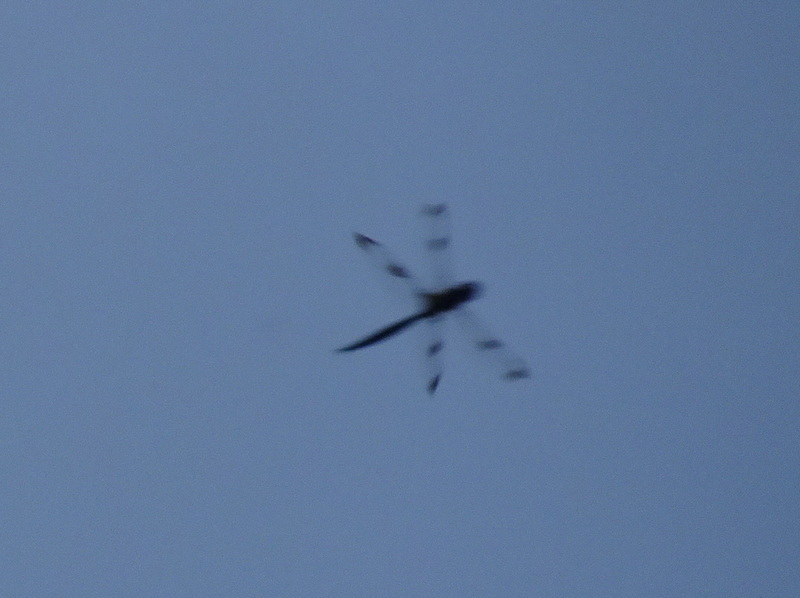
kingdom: Animalia
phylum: Arthropoda
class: Insecta
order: Odonata
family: Corduliidae
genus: Epitheca
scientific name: Epitheca princeps
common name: Prince baskettail
